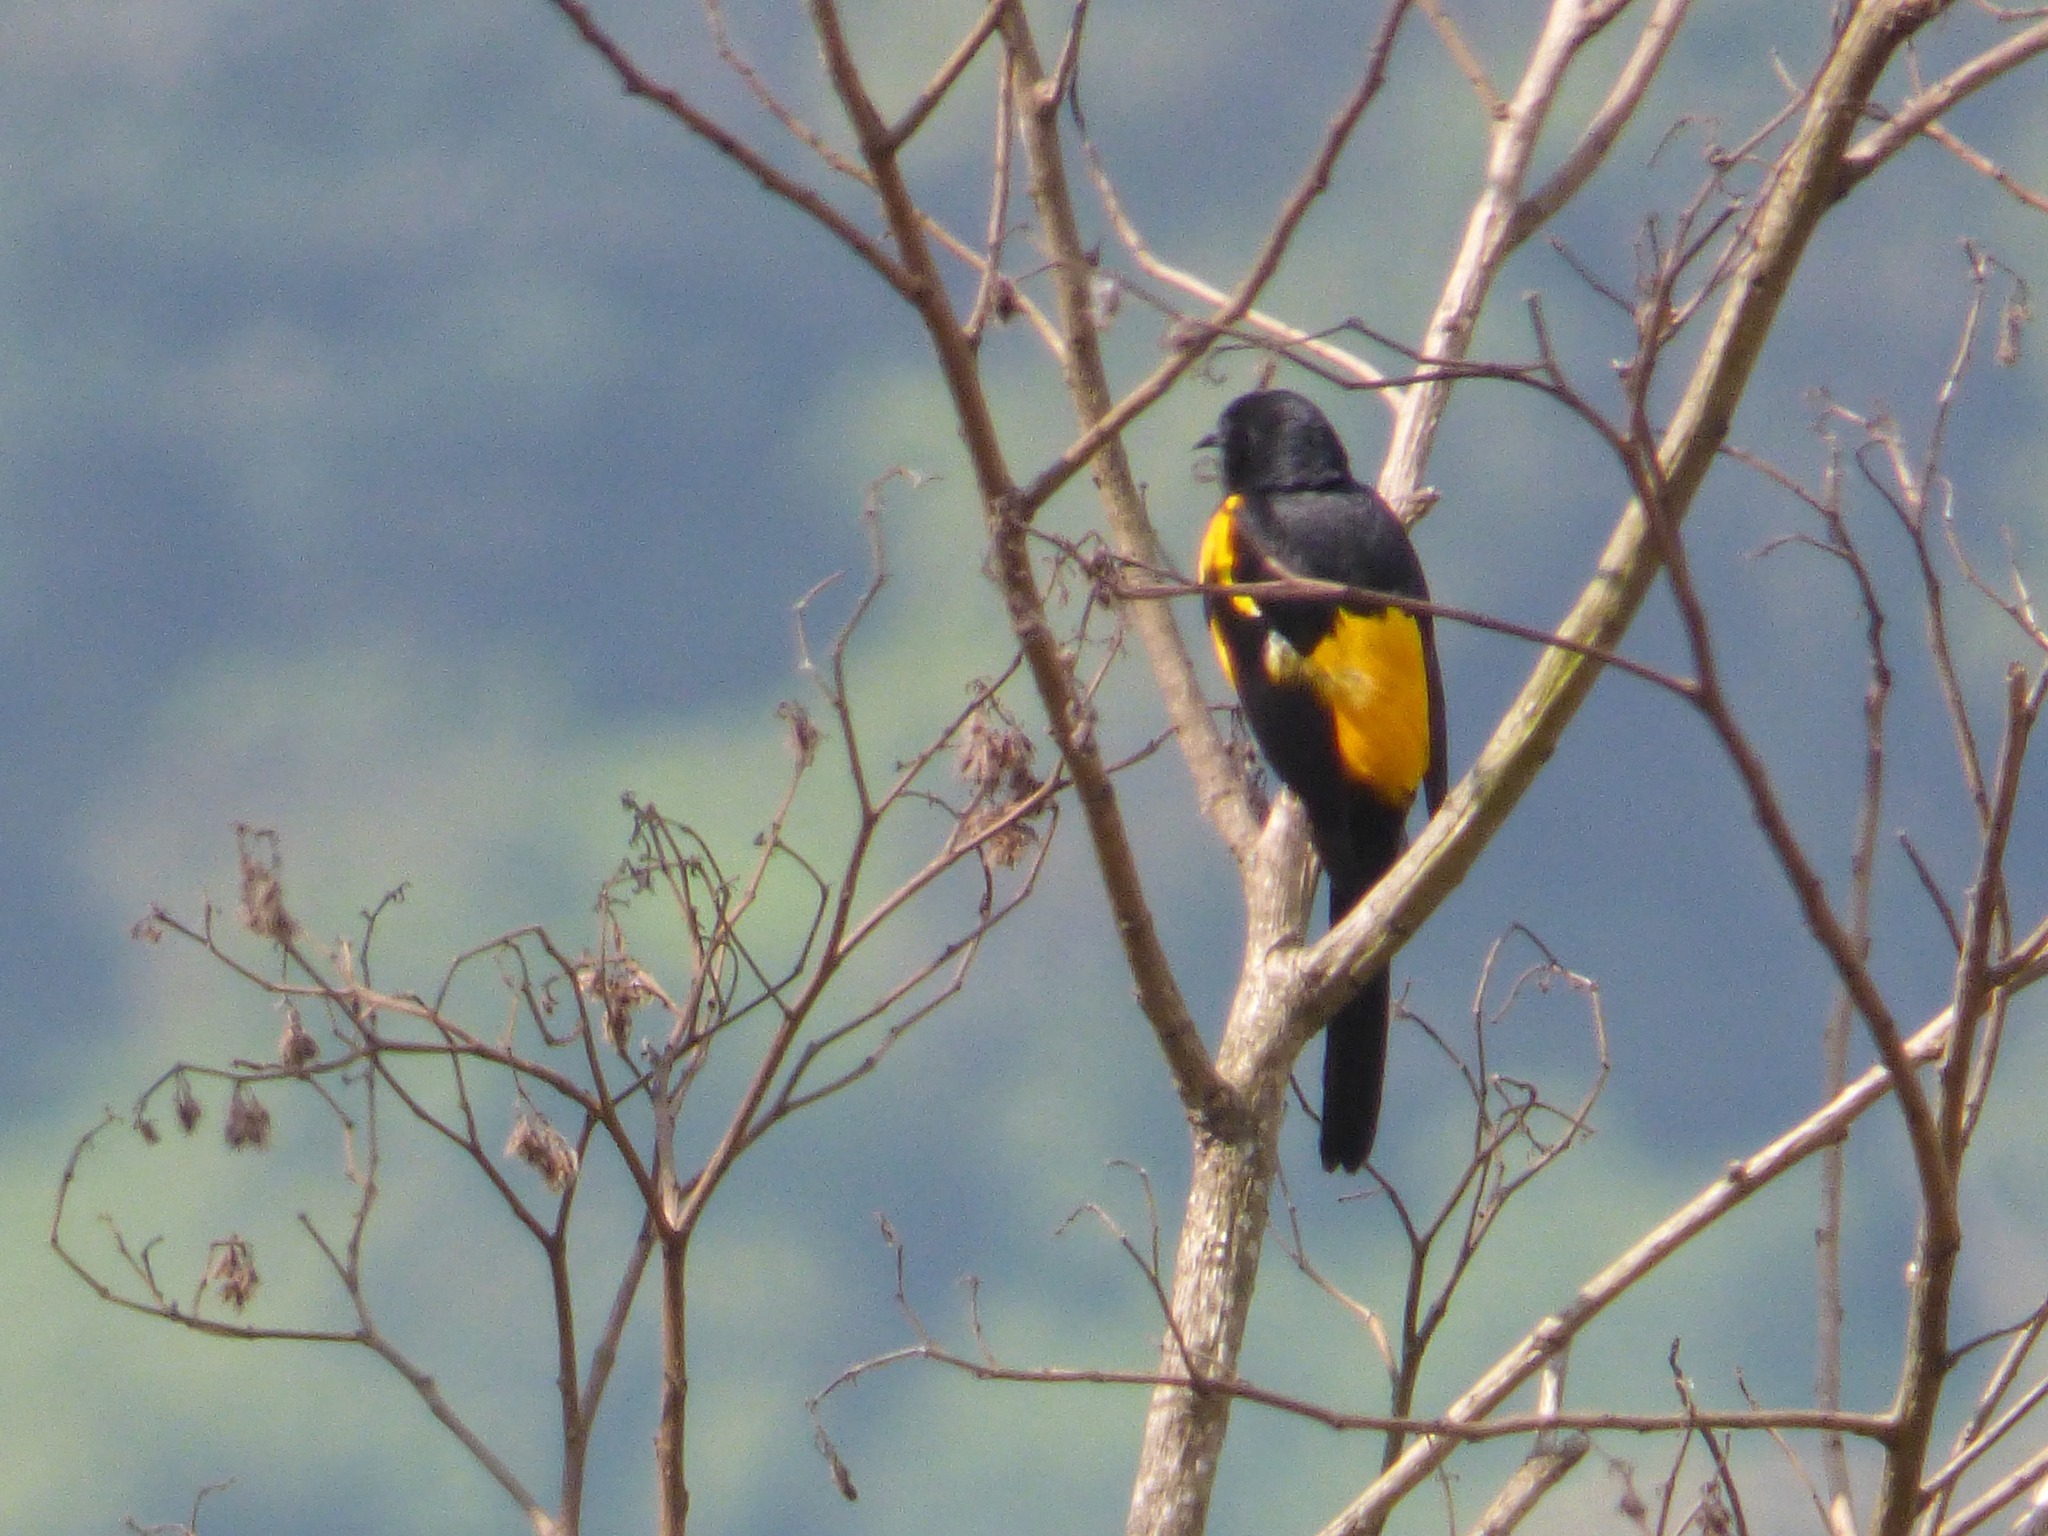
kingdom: Animalia
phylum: Chordata
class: Aves
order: Passeriformes
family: Icteridae
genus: Icterus
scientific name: Icterus wagleri
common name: Black-vented oriole
